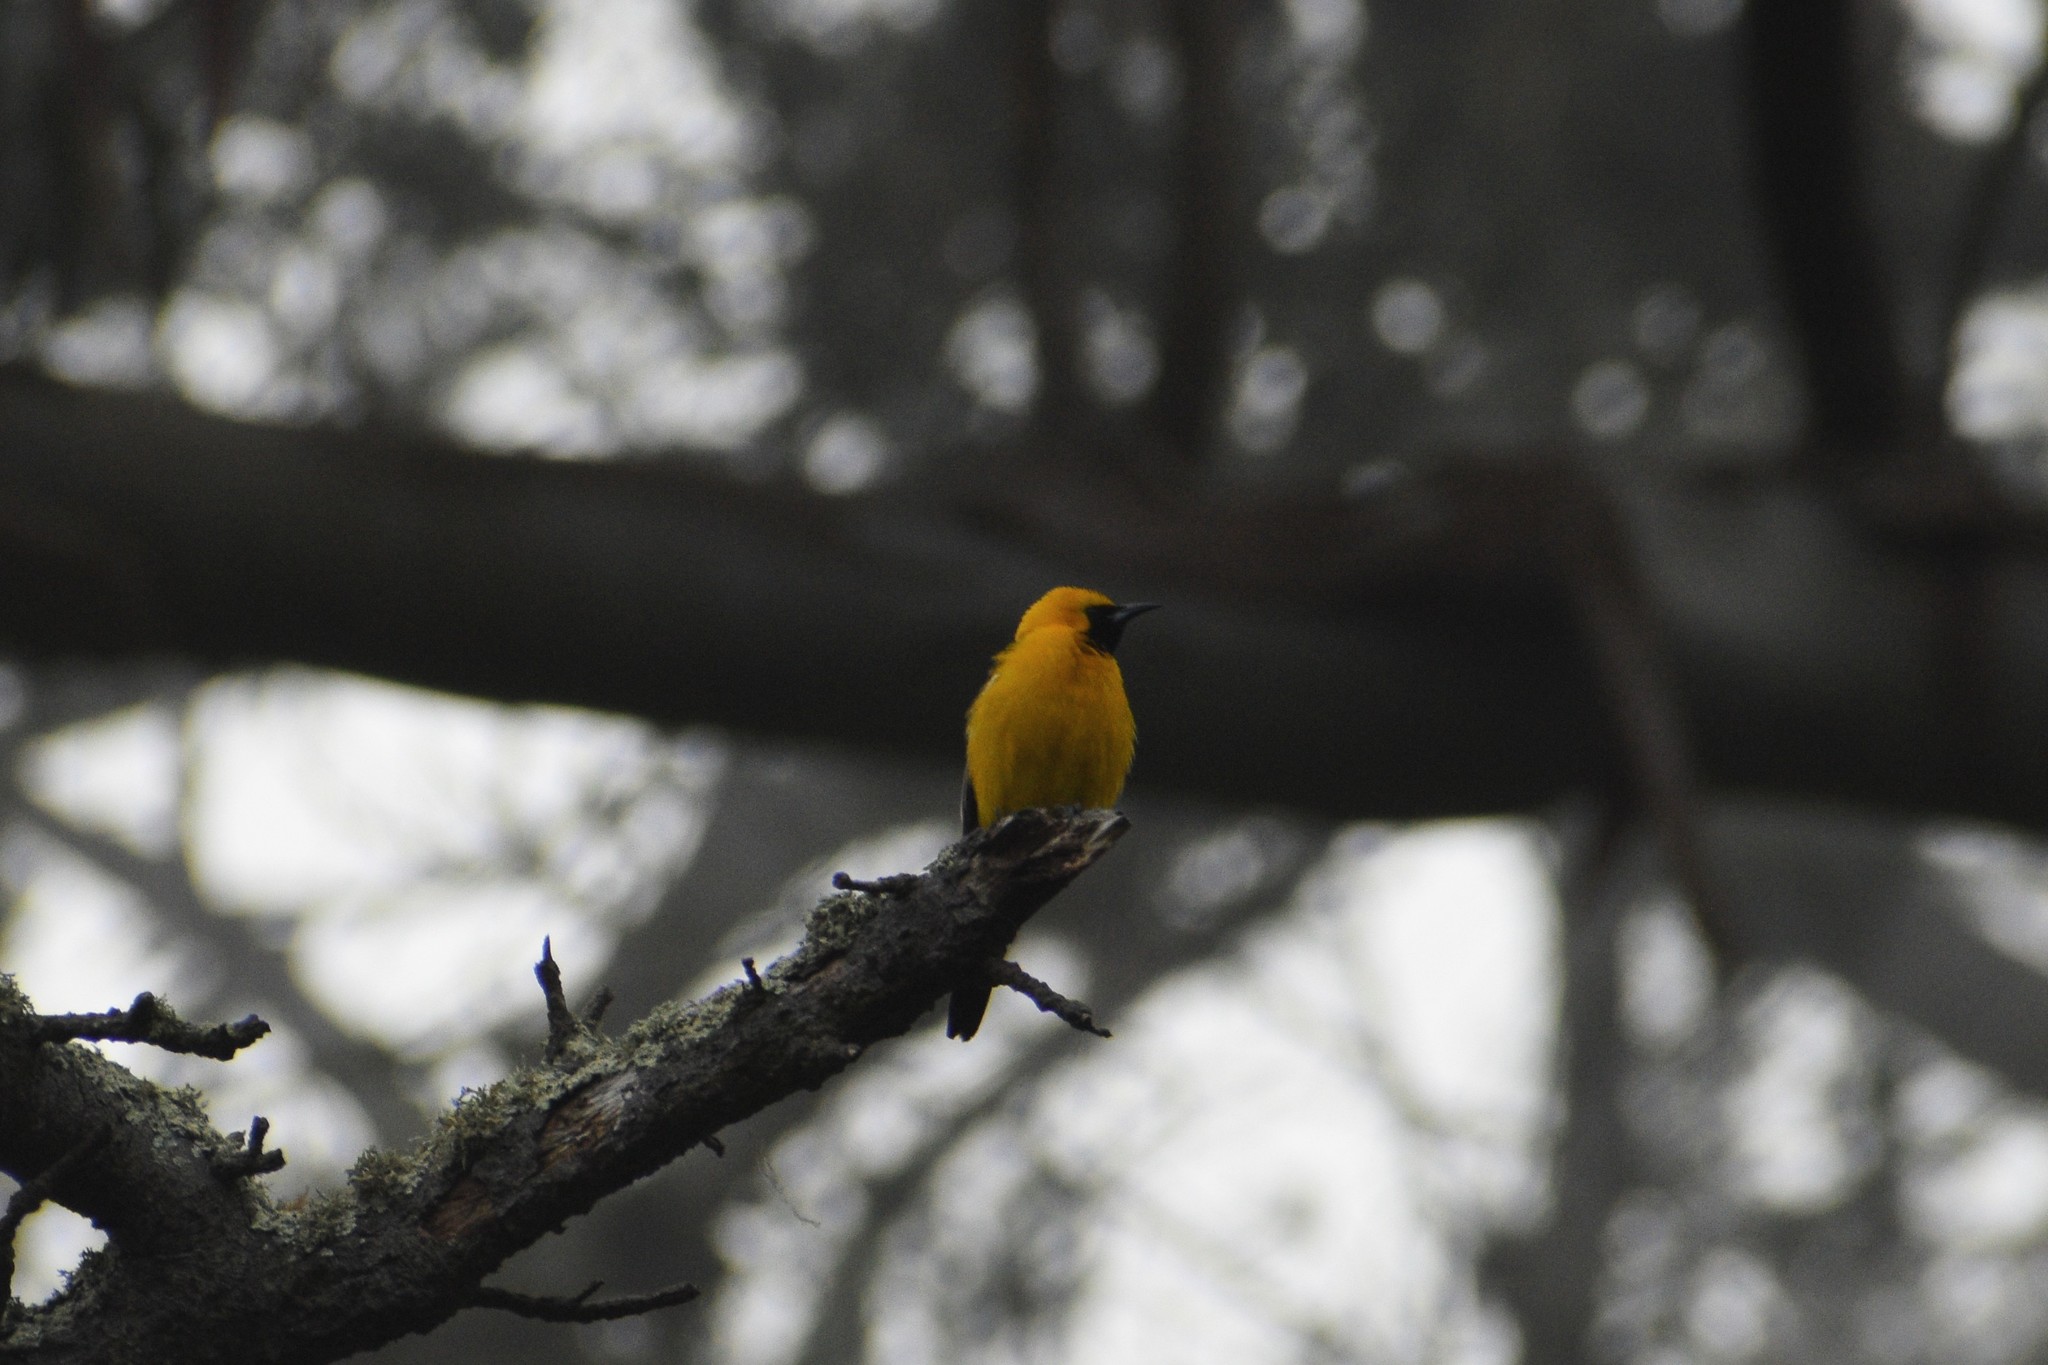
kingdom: Animalia
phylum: Chordata
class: Aves
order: Passeriformes
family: Icteridae
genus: Icterus
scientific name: Icterus cucullatus
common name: Hooded oriole
